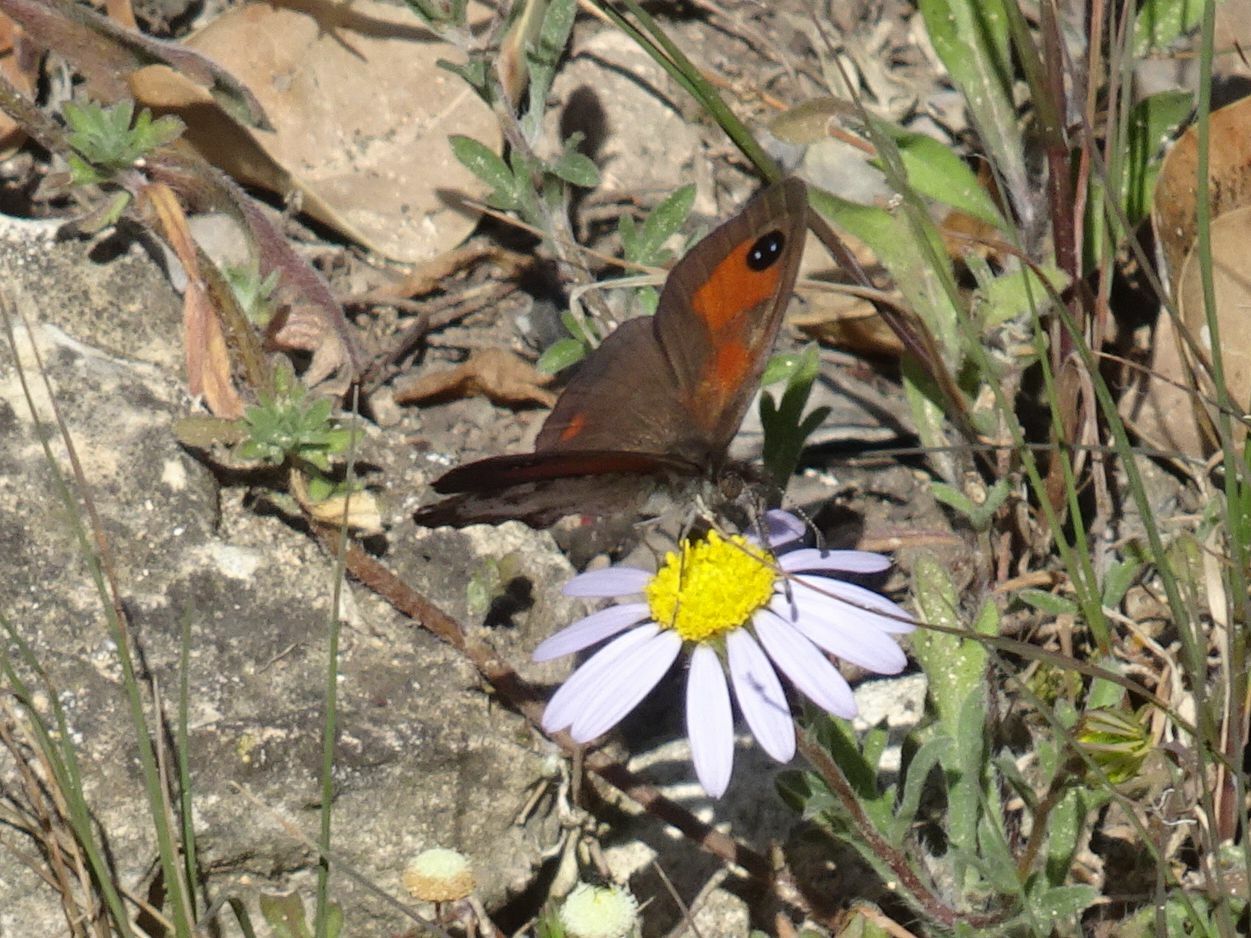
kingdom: Animalia
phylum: Arthropoda
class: Insecta
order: Lepidoptera
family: Nymphalidae
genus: Pseudonympha
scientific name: Pseudonympha magus
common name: Silver-bottom brown
